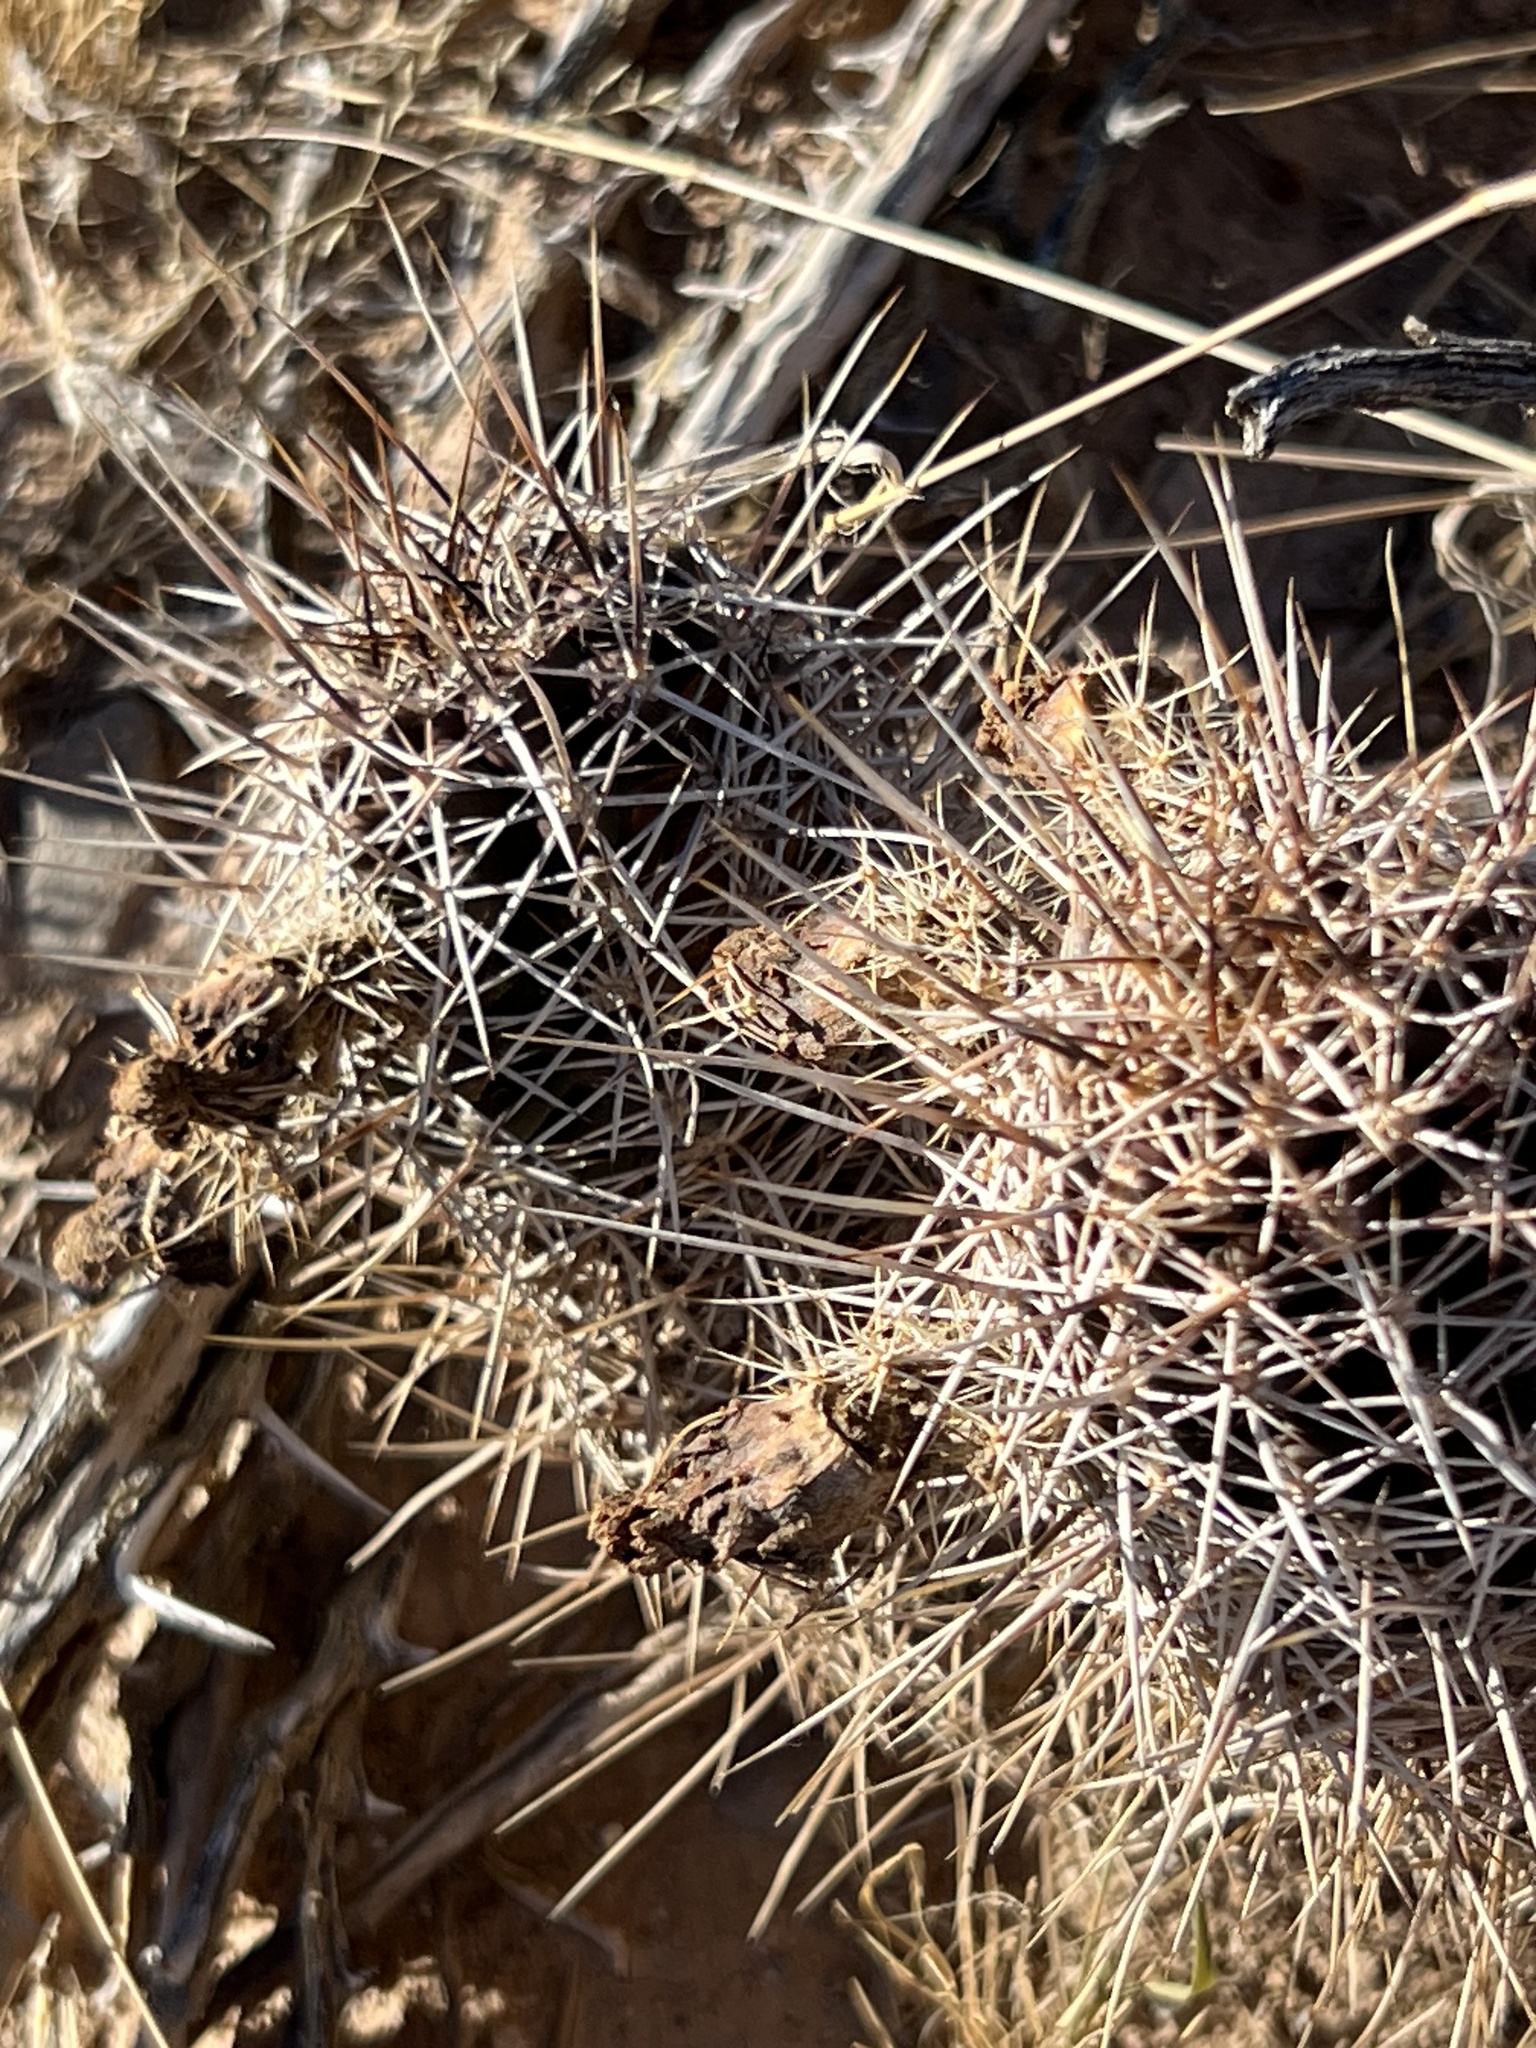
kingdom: Plantae
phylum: Tracheophyta
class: Magnoliopsida
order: Caryophyllales
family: Cactaceae
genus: Echinocereus
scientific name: Echinocereus fendleri
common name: Fendler's hedgehog cactus
